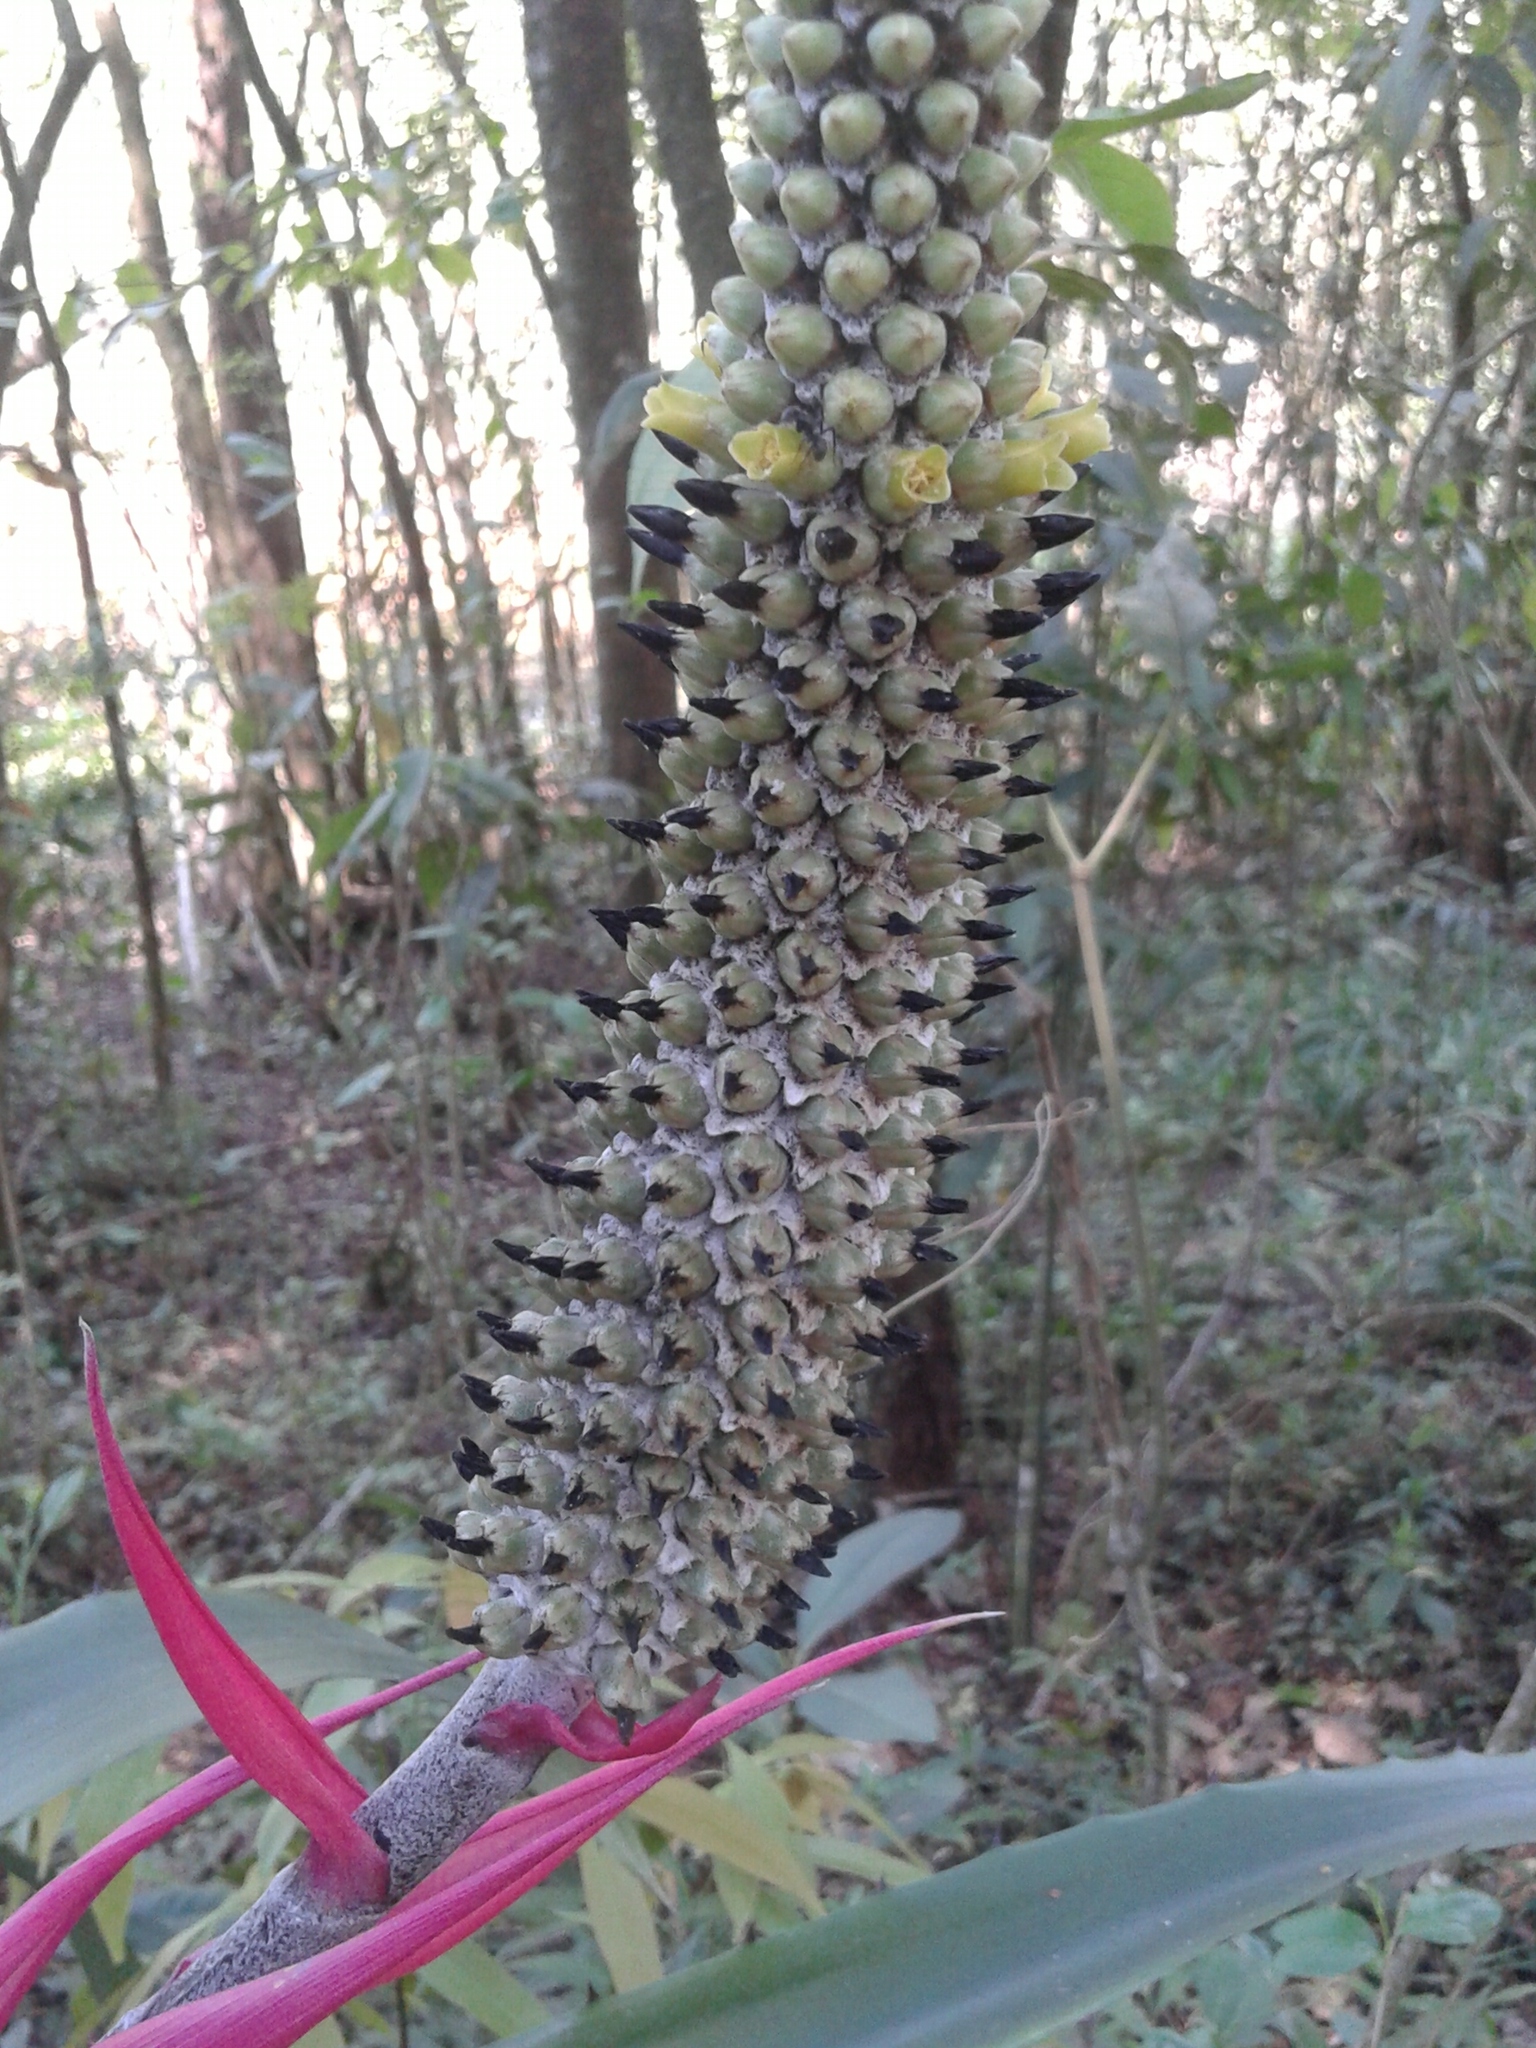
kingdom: Plantae
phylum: Tracheophyta
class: Liliopsida
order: Poales
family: Bromeliaceae
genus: Aechmea
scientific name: Aechmea bromeliifolia
